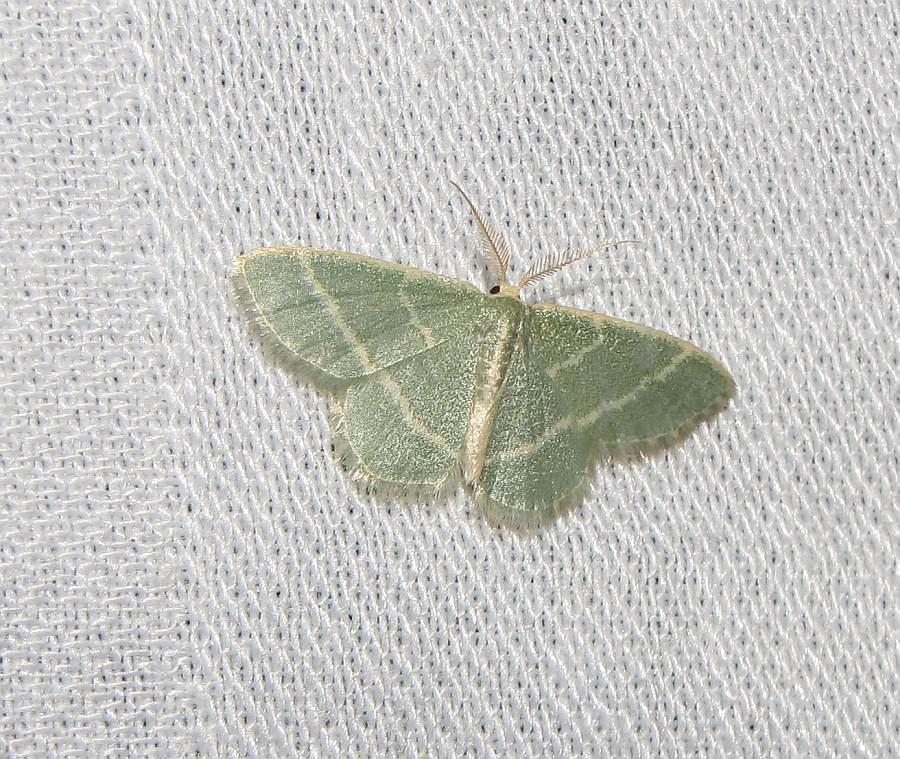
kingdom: Animalia
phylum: Arthropoda
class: Insecta
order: Lepidoptera
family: Geometridae
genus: Chlorochlamys
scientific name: Chlorochlamys chloroleucaria
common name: Blackberry looper
